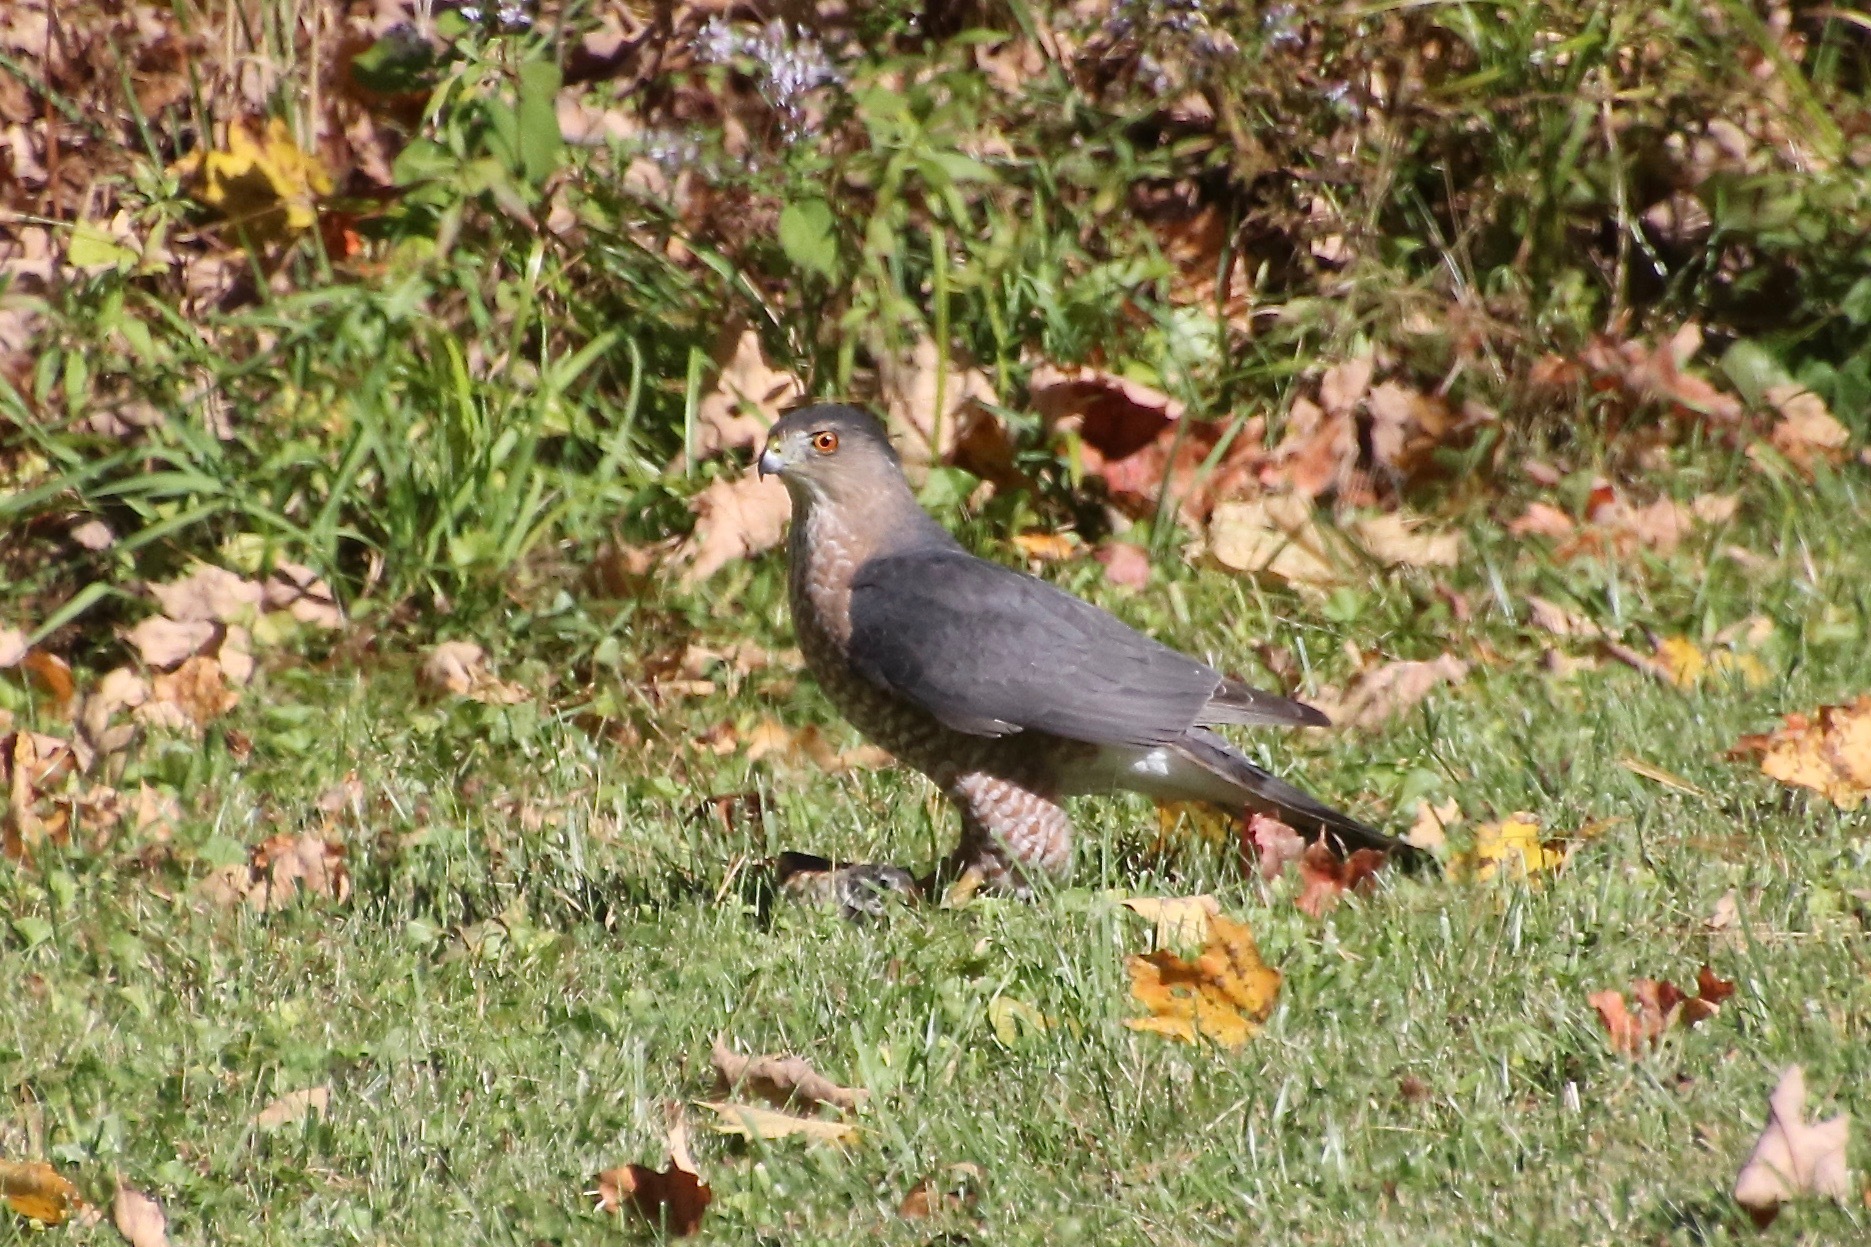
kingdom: Animalia
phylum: Chordata
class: Aves
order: Accipitriformes
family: Accipitridae
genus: Accipiter
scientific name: Accipiter cooperii
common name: Cooper's hawk
